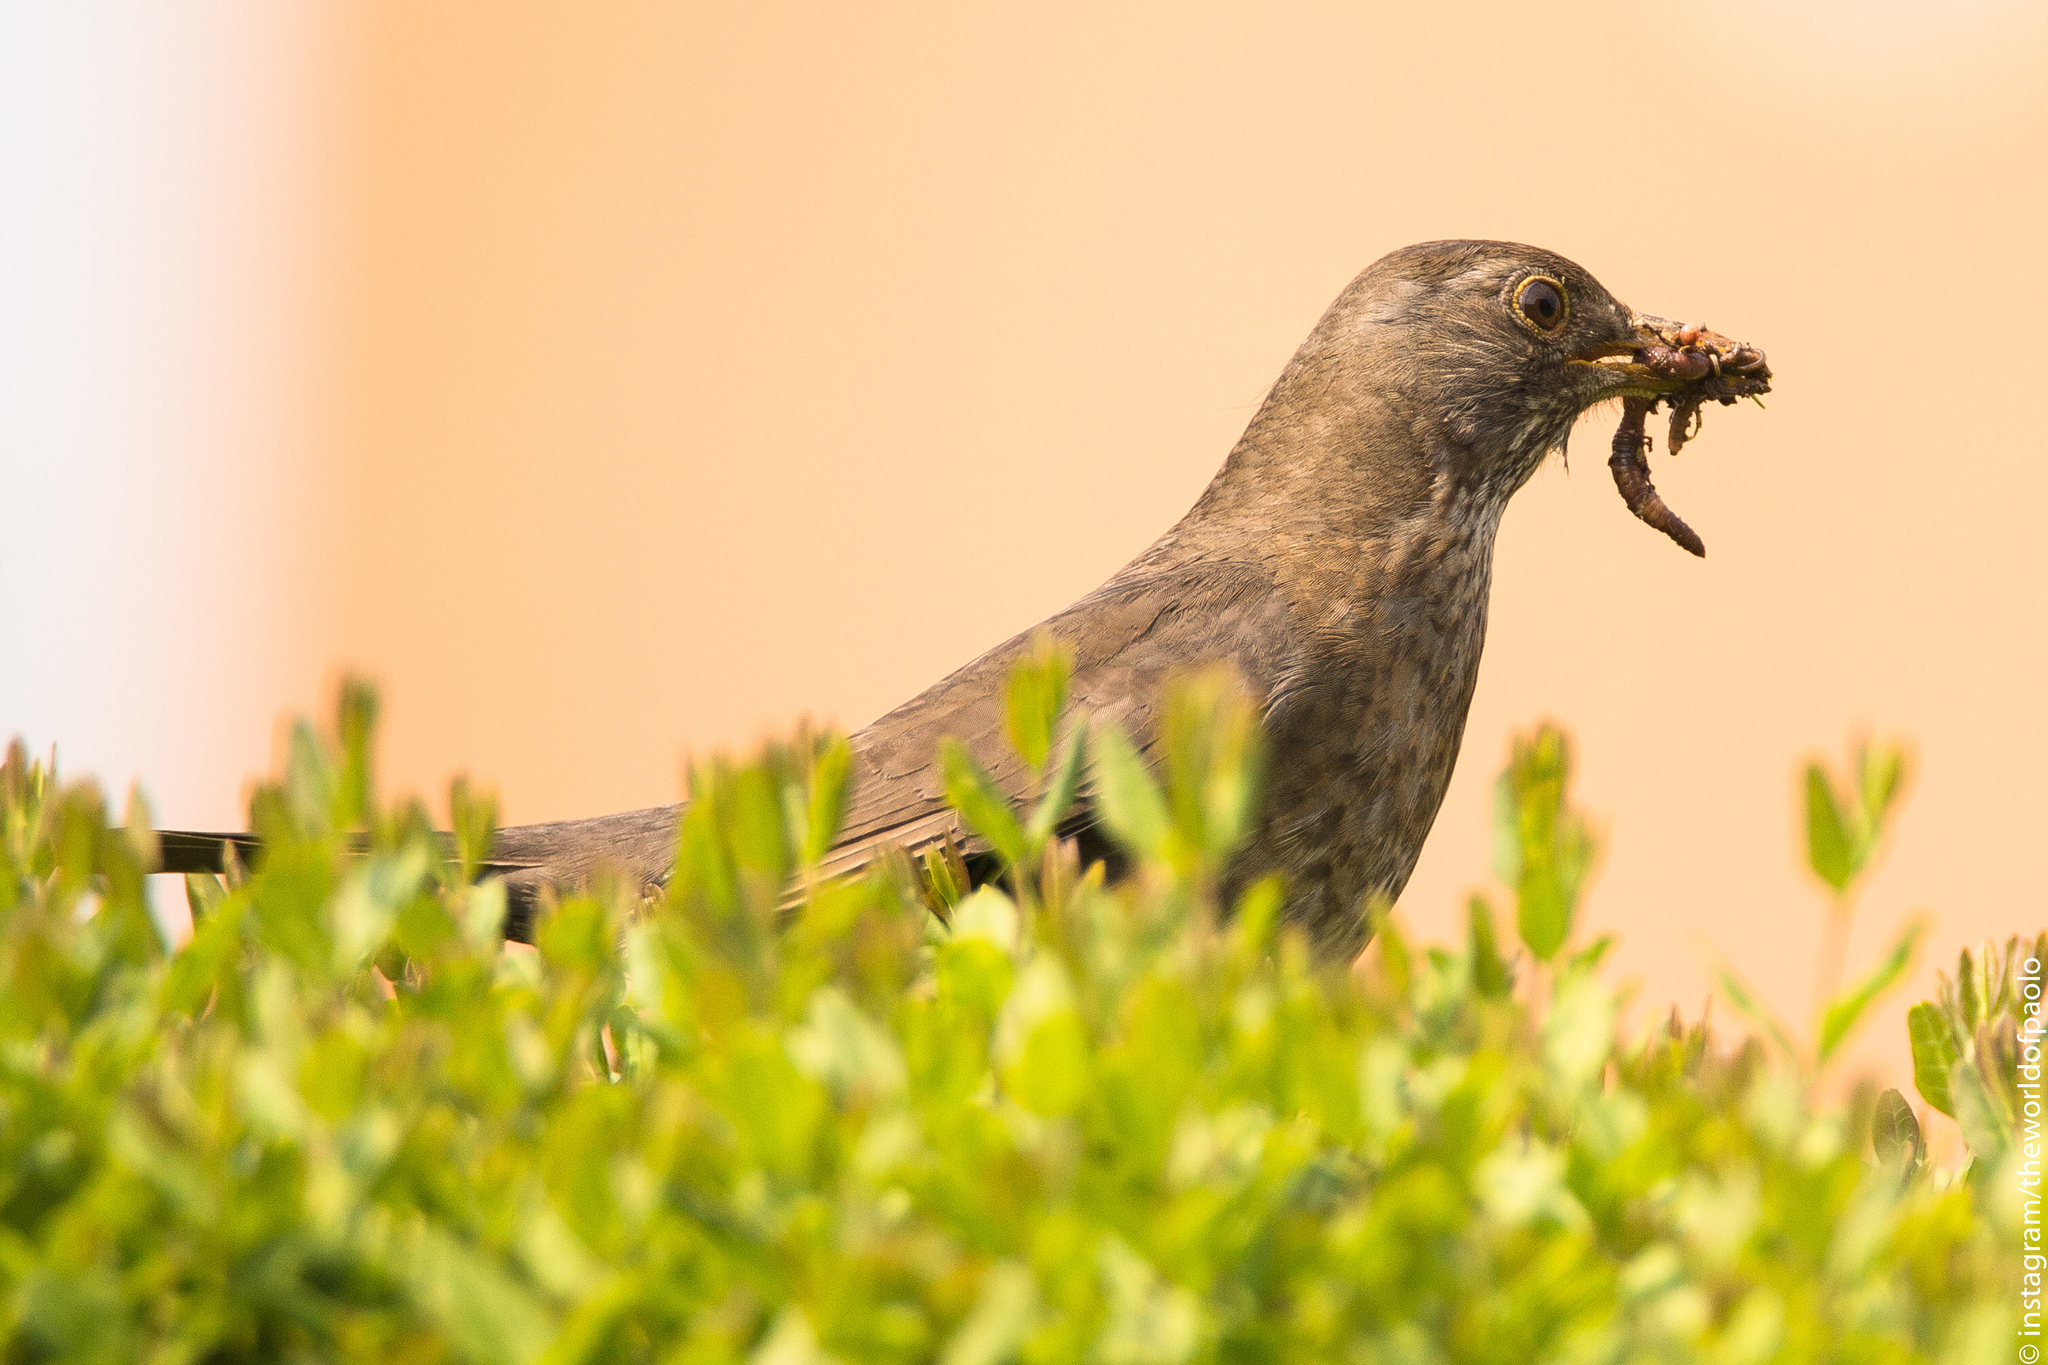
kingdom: Animalia
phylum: Chordata
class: Aves
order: Passeriformes
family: Turdidae
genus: Turdus
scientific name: Turdus merula
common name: Common blackbird
